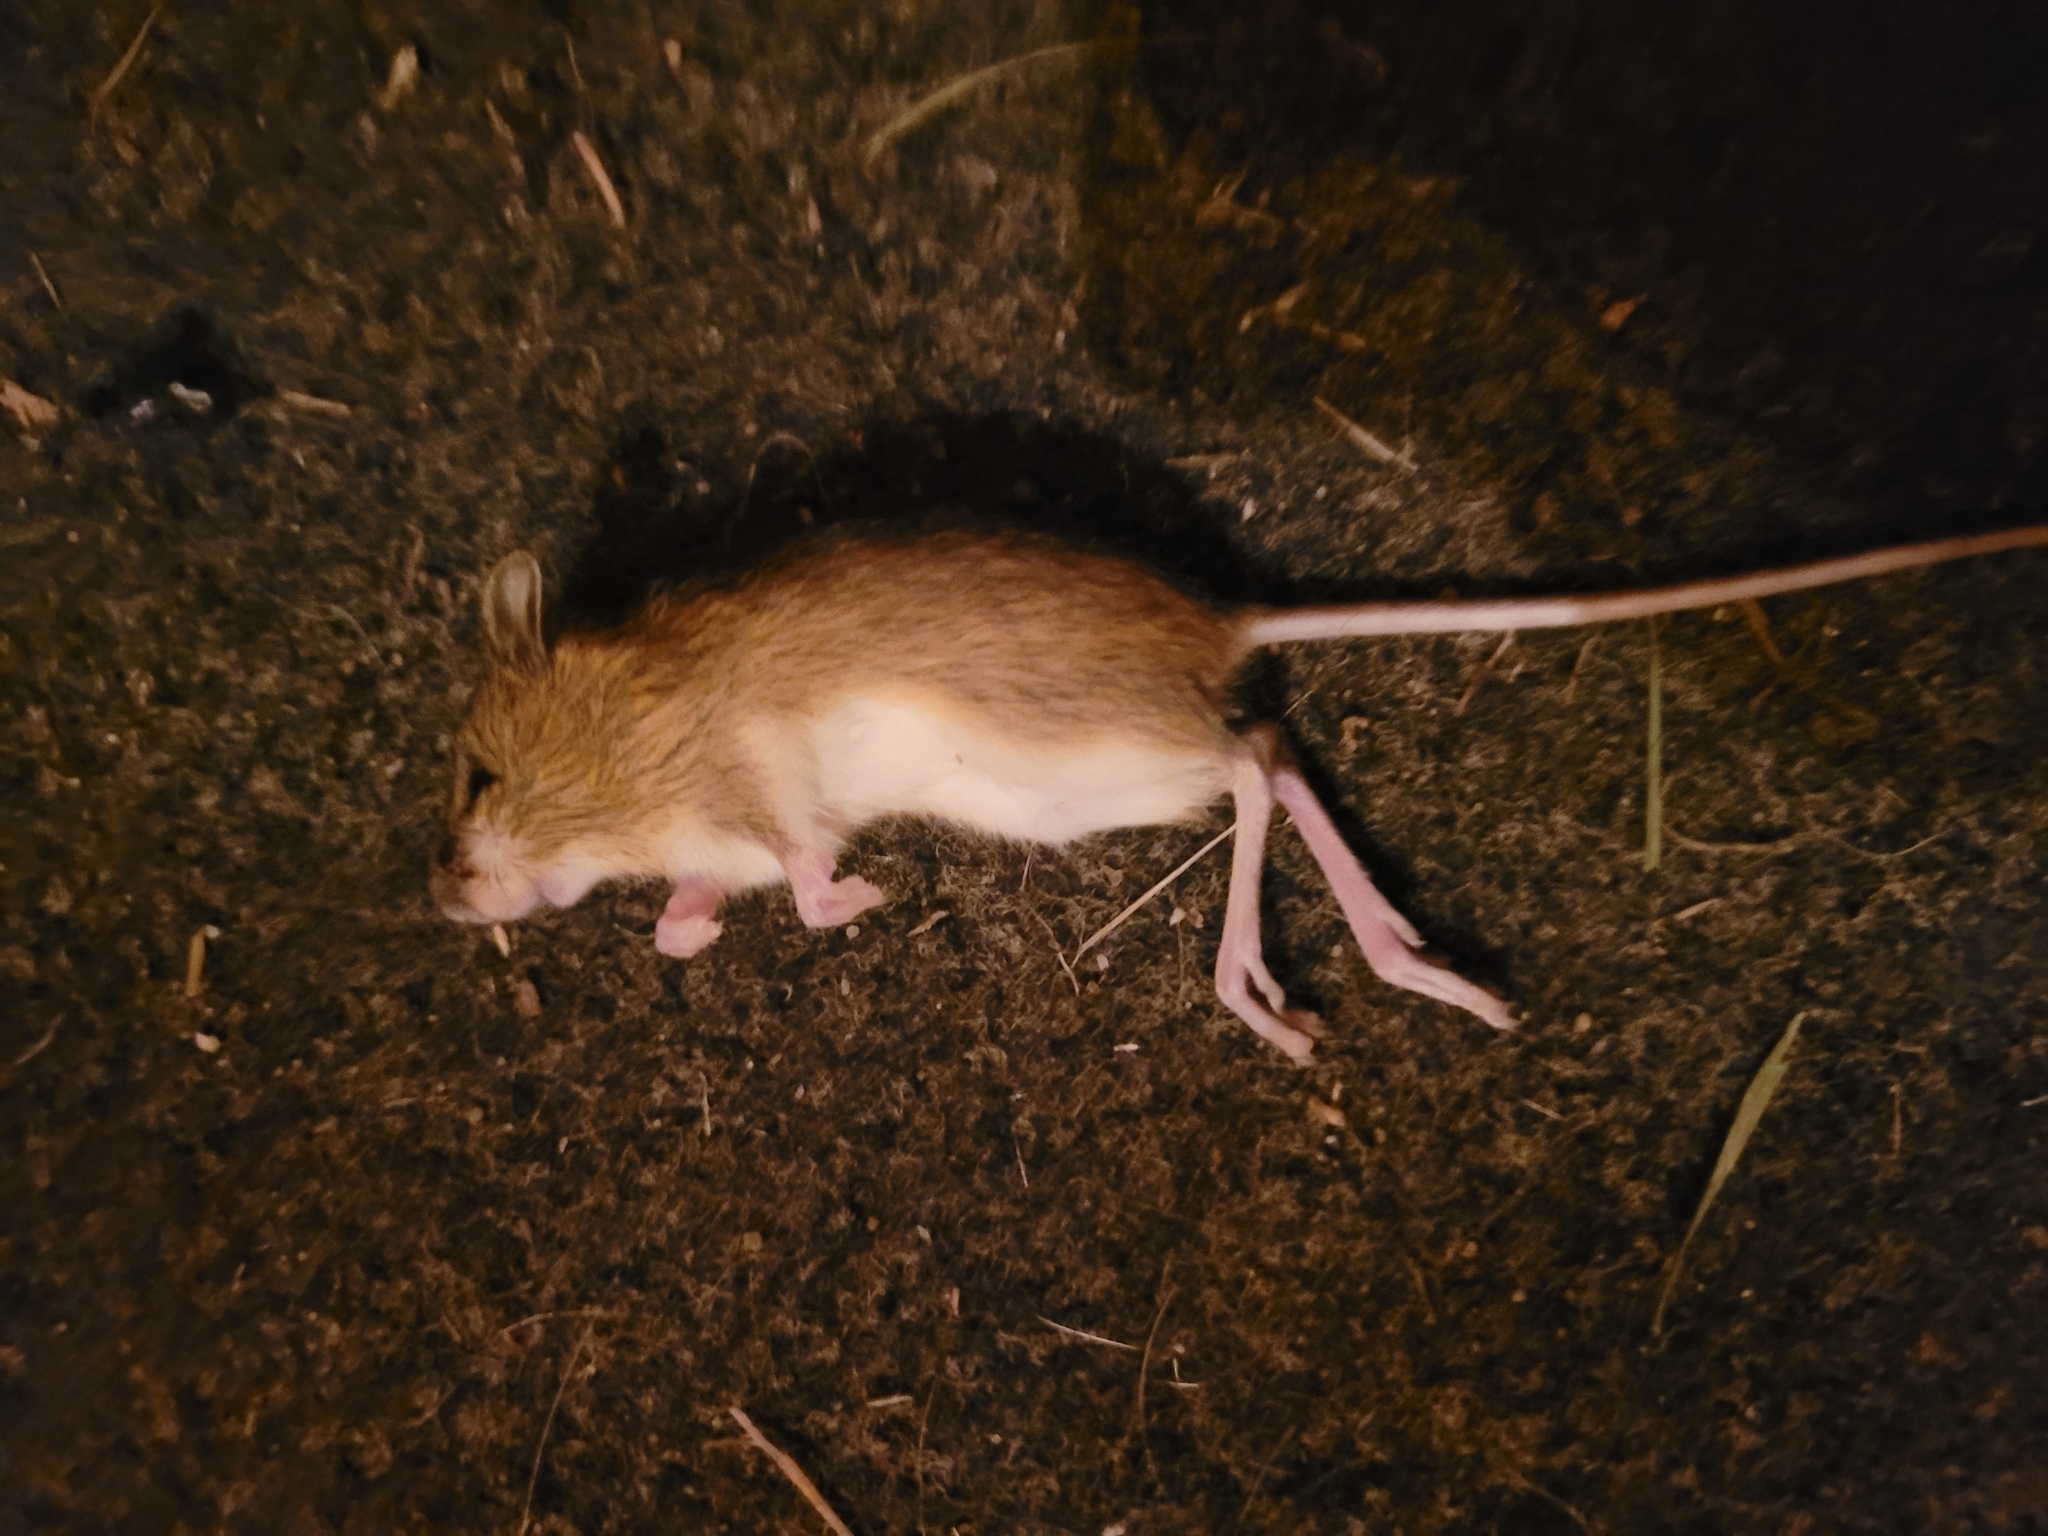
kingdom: Animalia
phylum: Chordata
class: Mammalia
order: Rodentia
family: Dipodidae
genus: Zapus
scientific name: Zapus hudsonius
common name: Meadow jumping mouse
